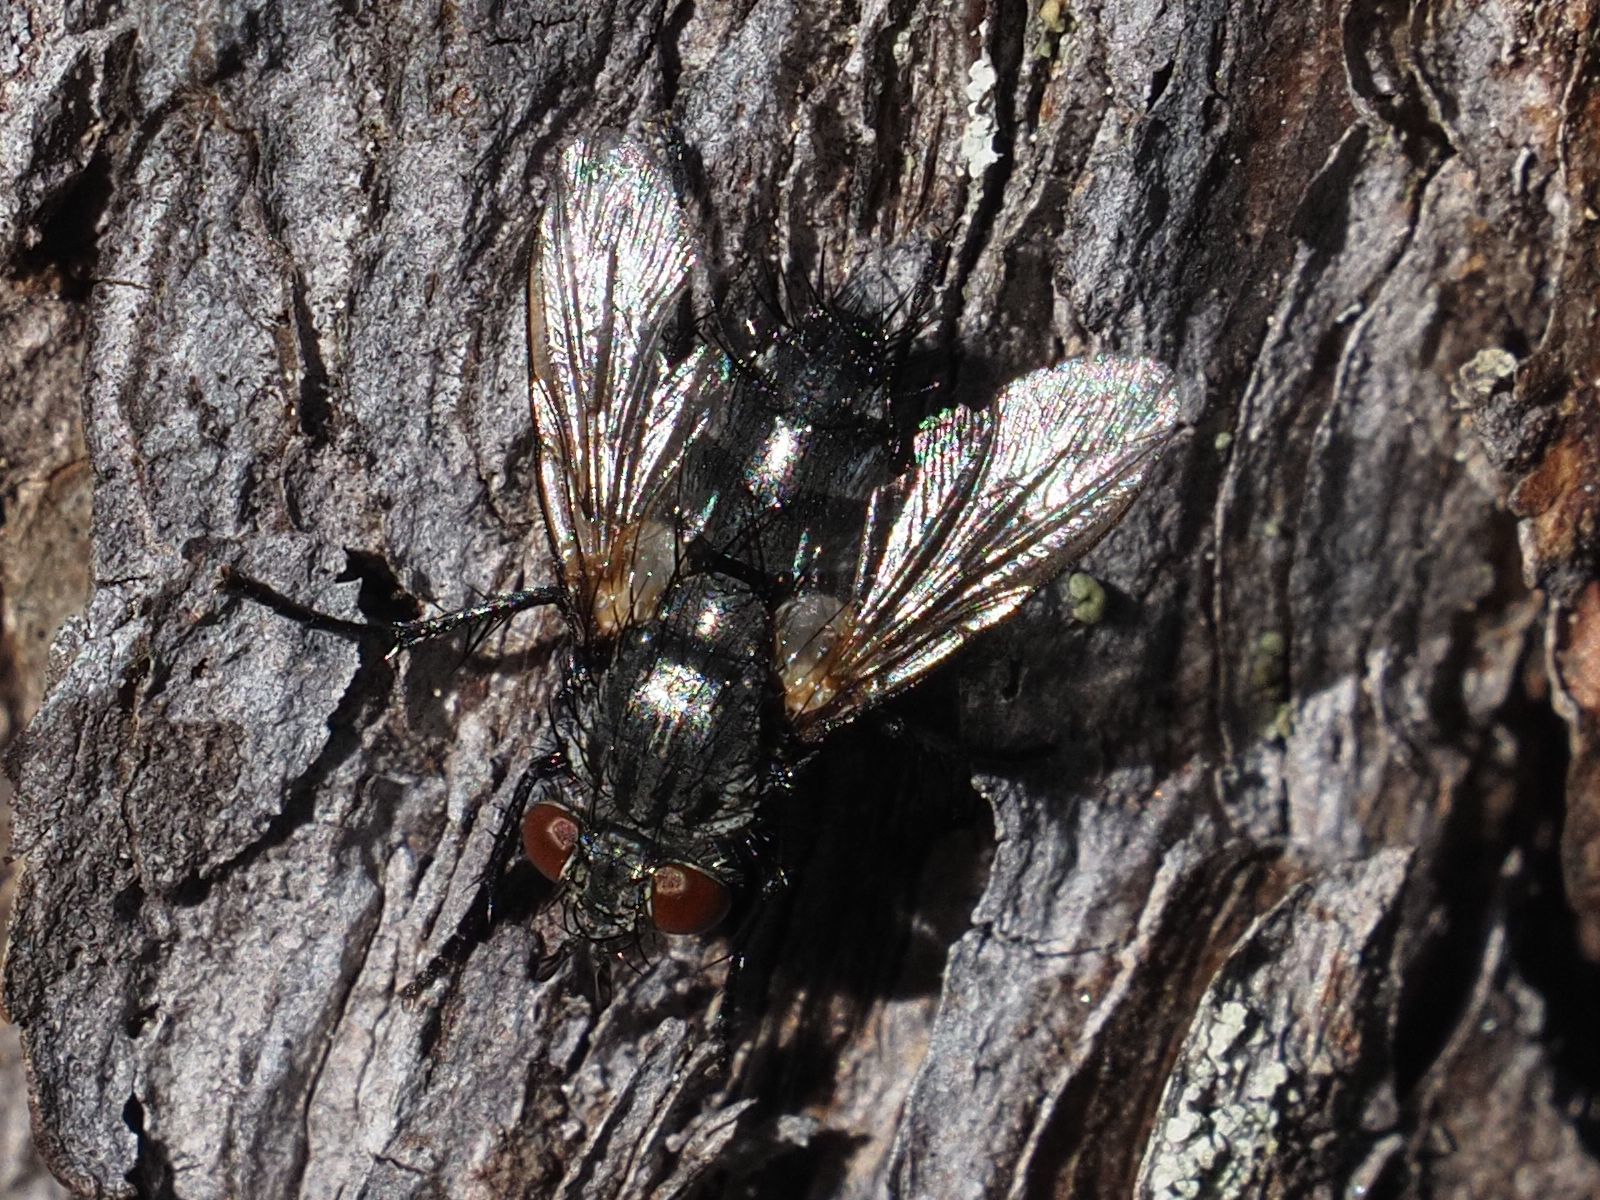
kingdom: Animalia
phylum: Arthropoda
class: Insecta
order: Diptera
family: Tachinidae
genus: Voria
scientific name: Voria ruralis
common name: Parasitic fly
